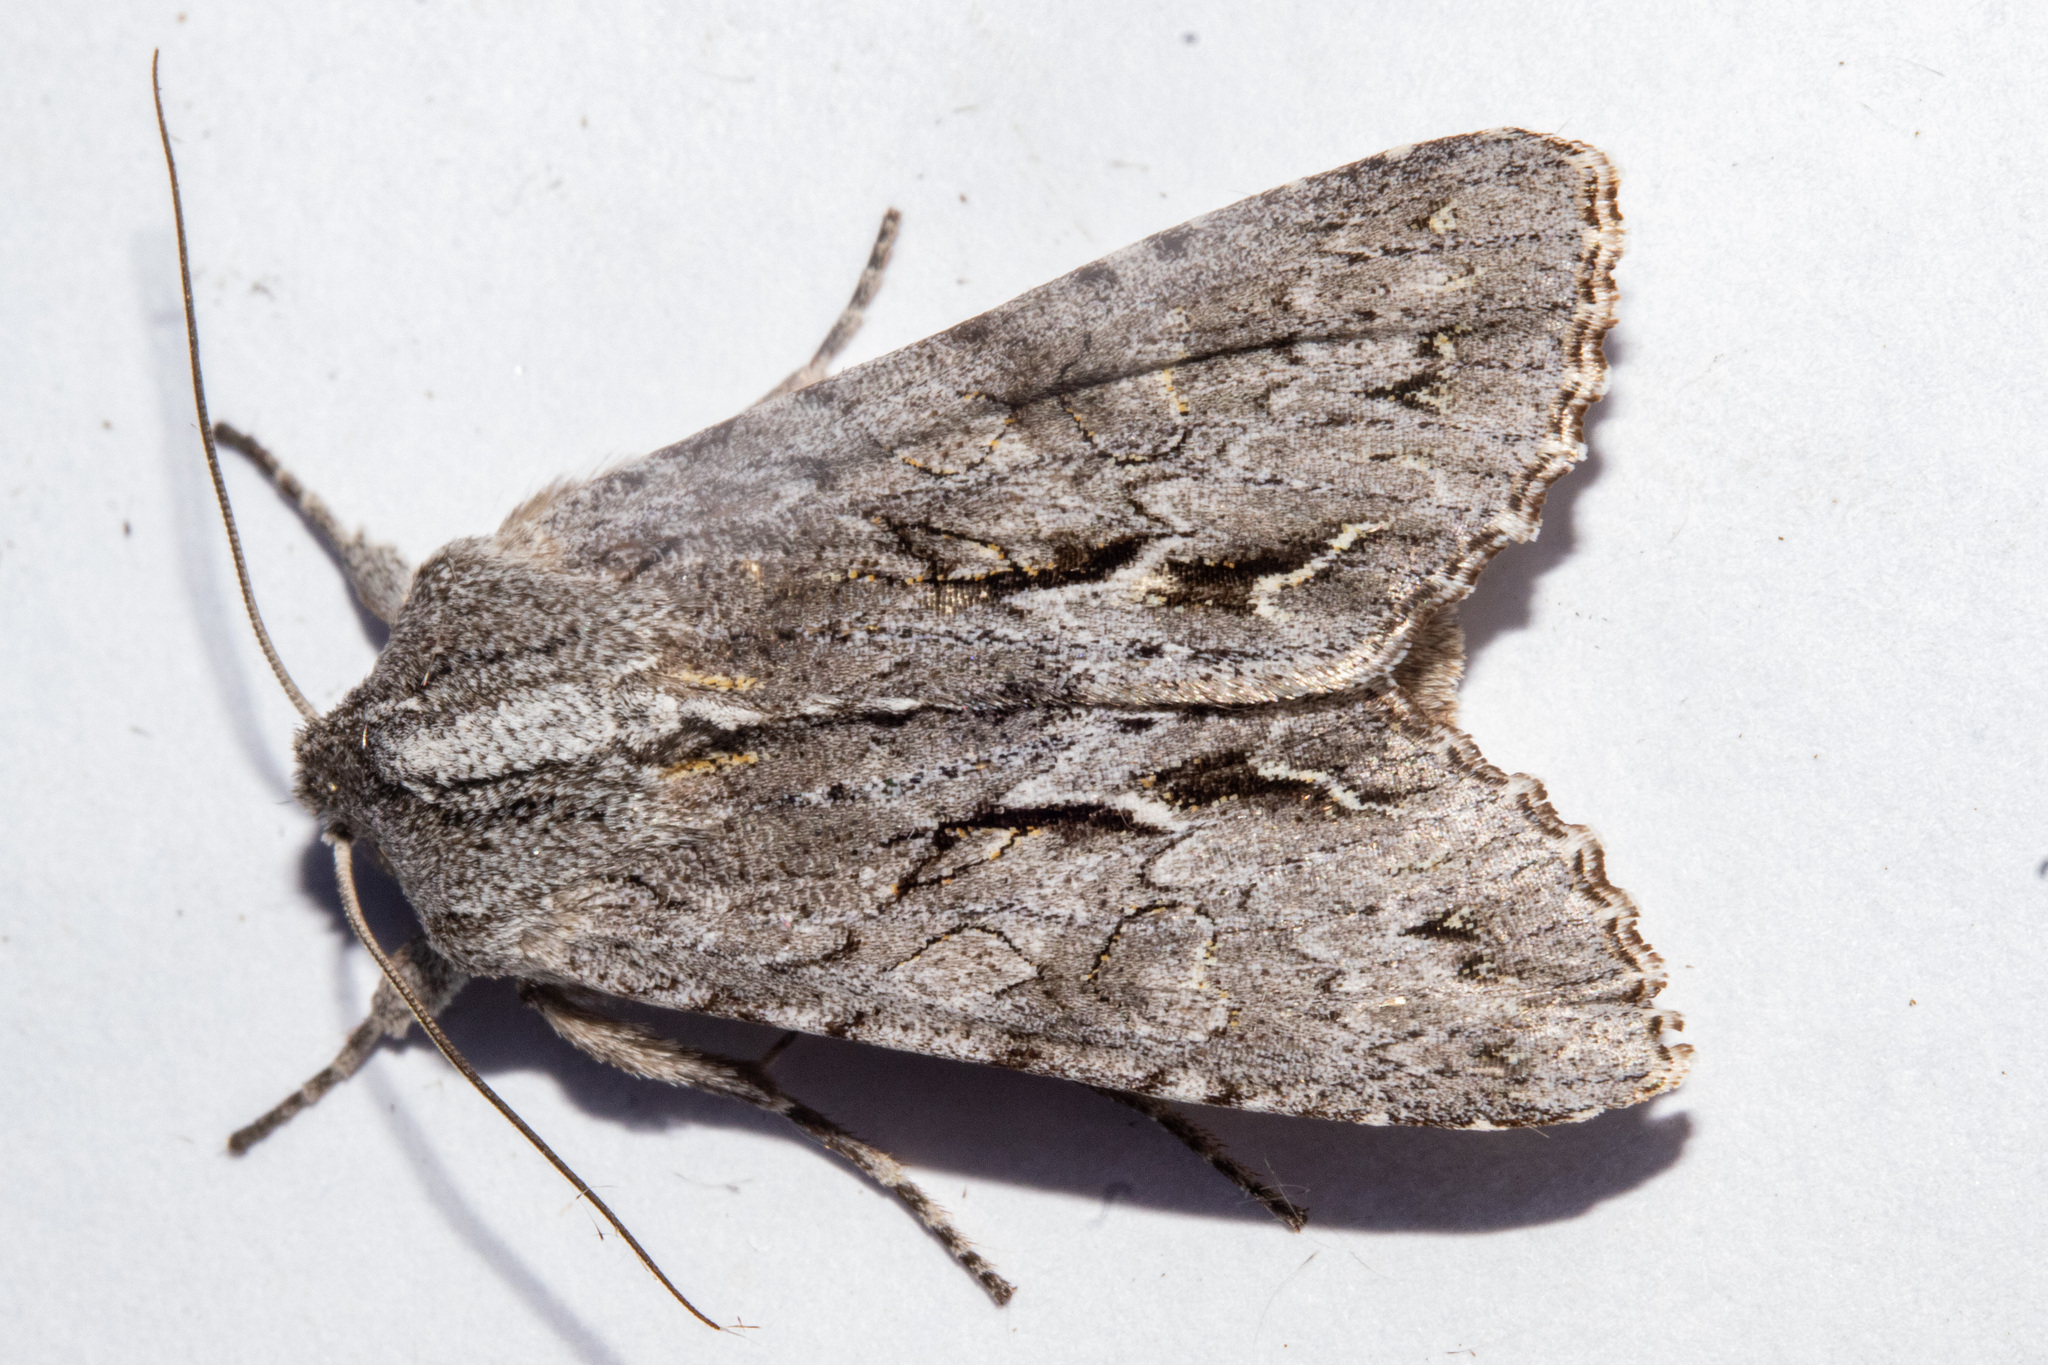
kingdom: Animalia
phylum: Arthropoda
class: Insecta
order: Lepidoptera
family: Noctuidae
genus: Ichneutica
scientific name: Ichneutica
